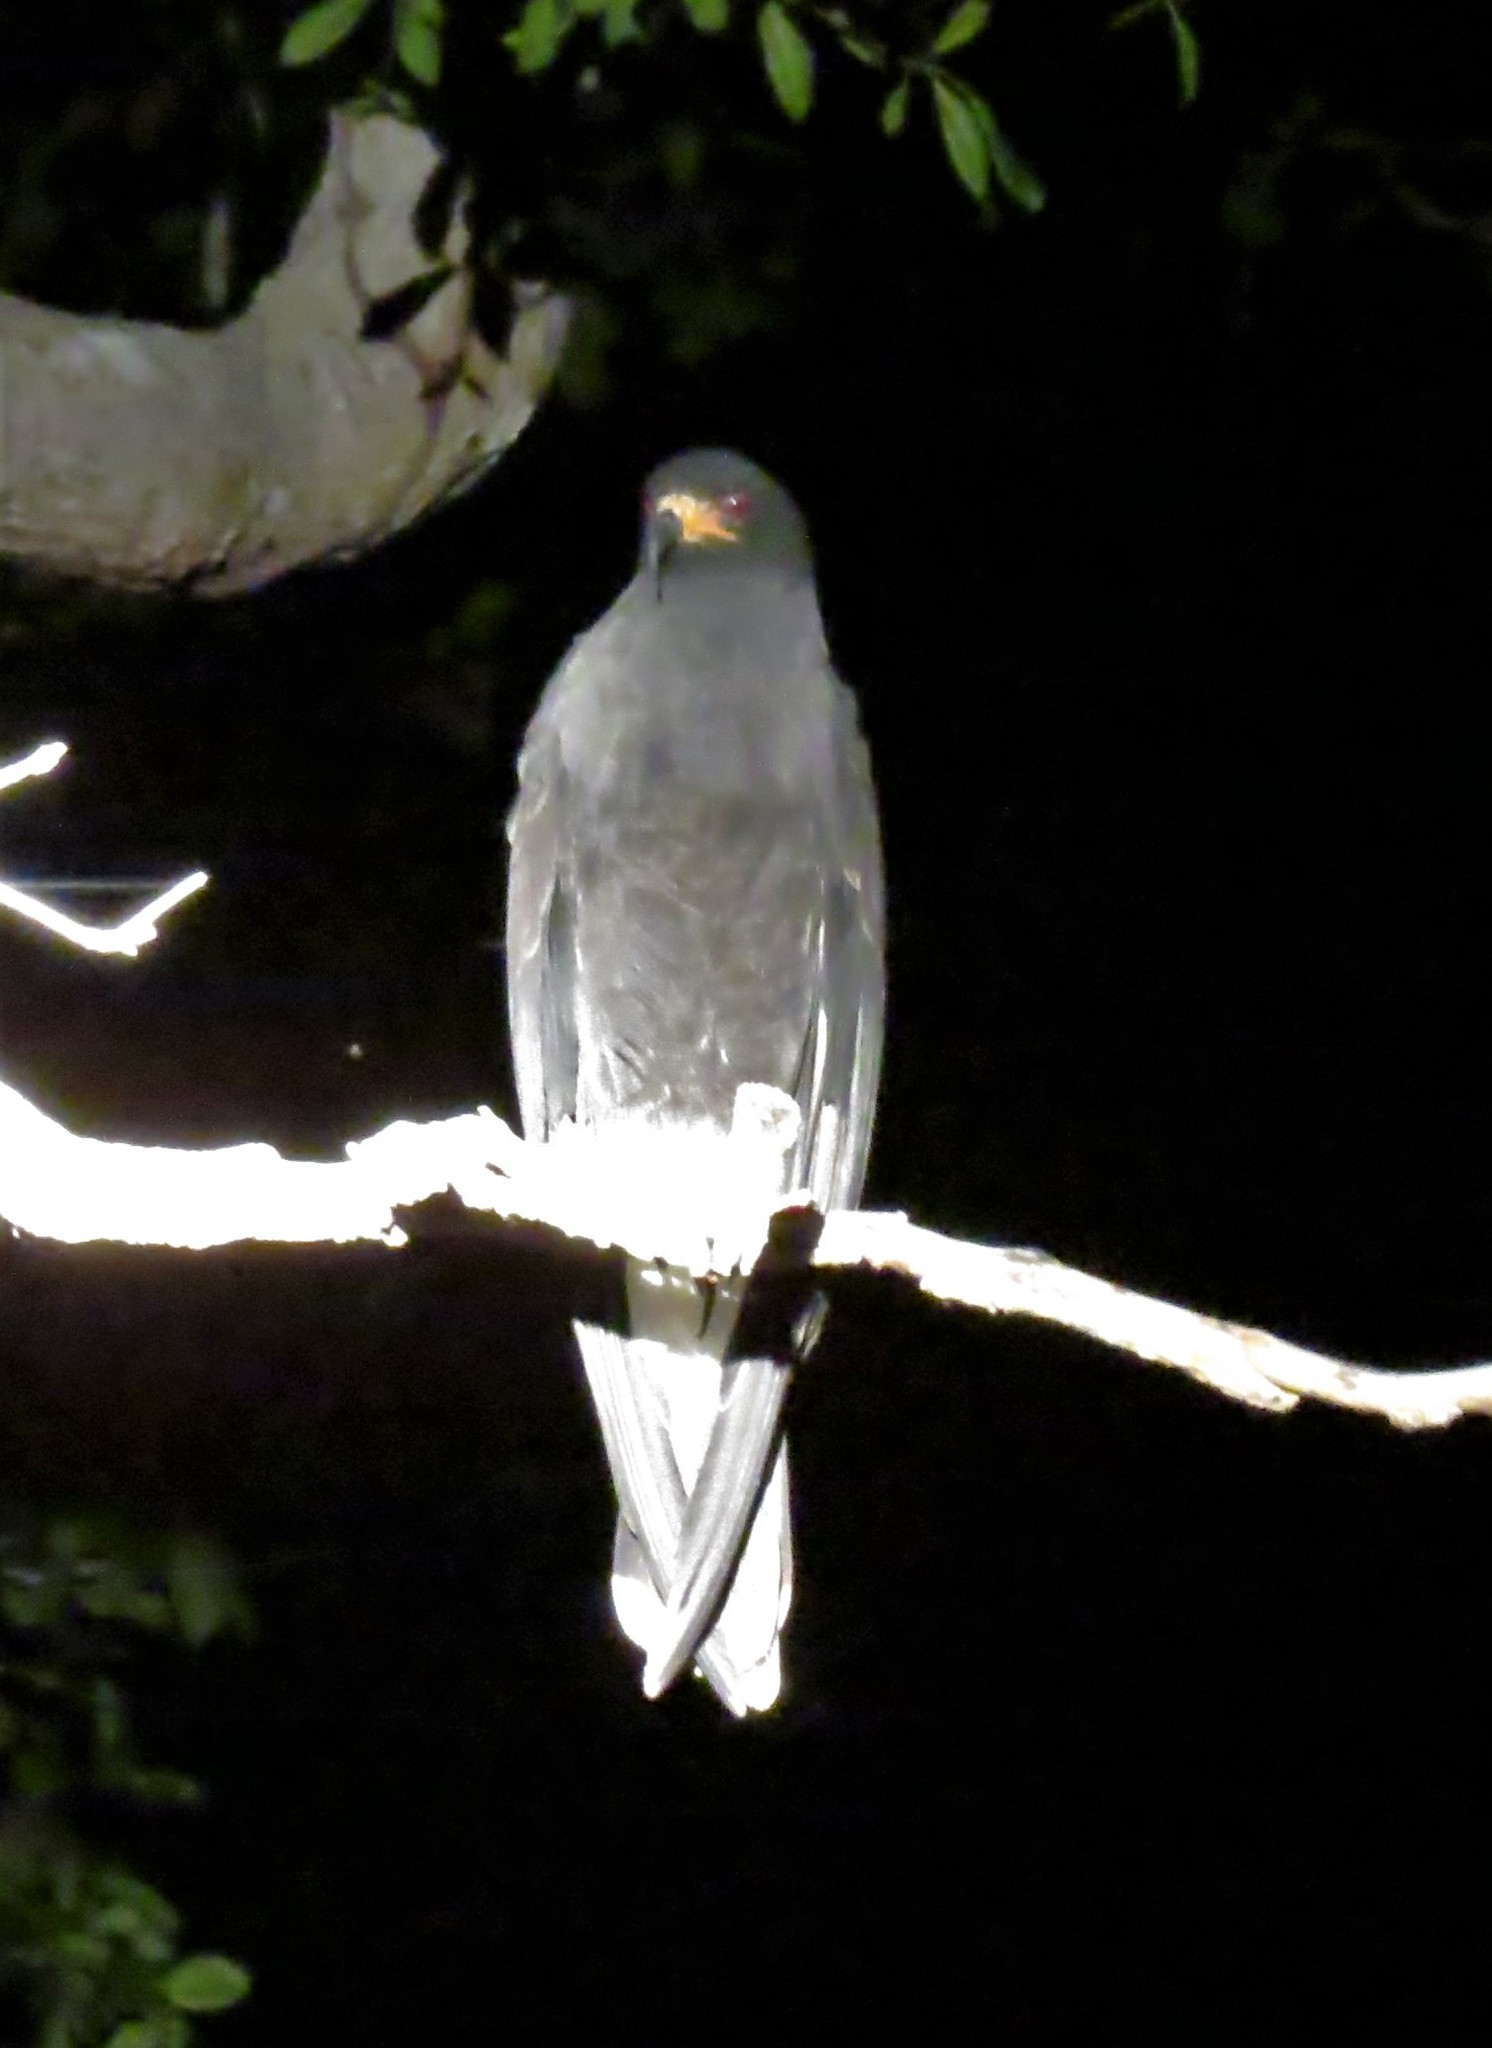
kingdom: Animalia
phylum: Chordata
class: Aves
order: Accipitriformes
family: Accipitridae
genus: Rostrhamus
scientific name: Rostrhamus sociabilis
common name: Snail kite
